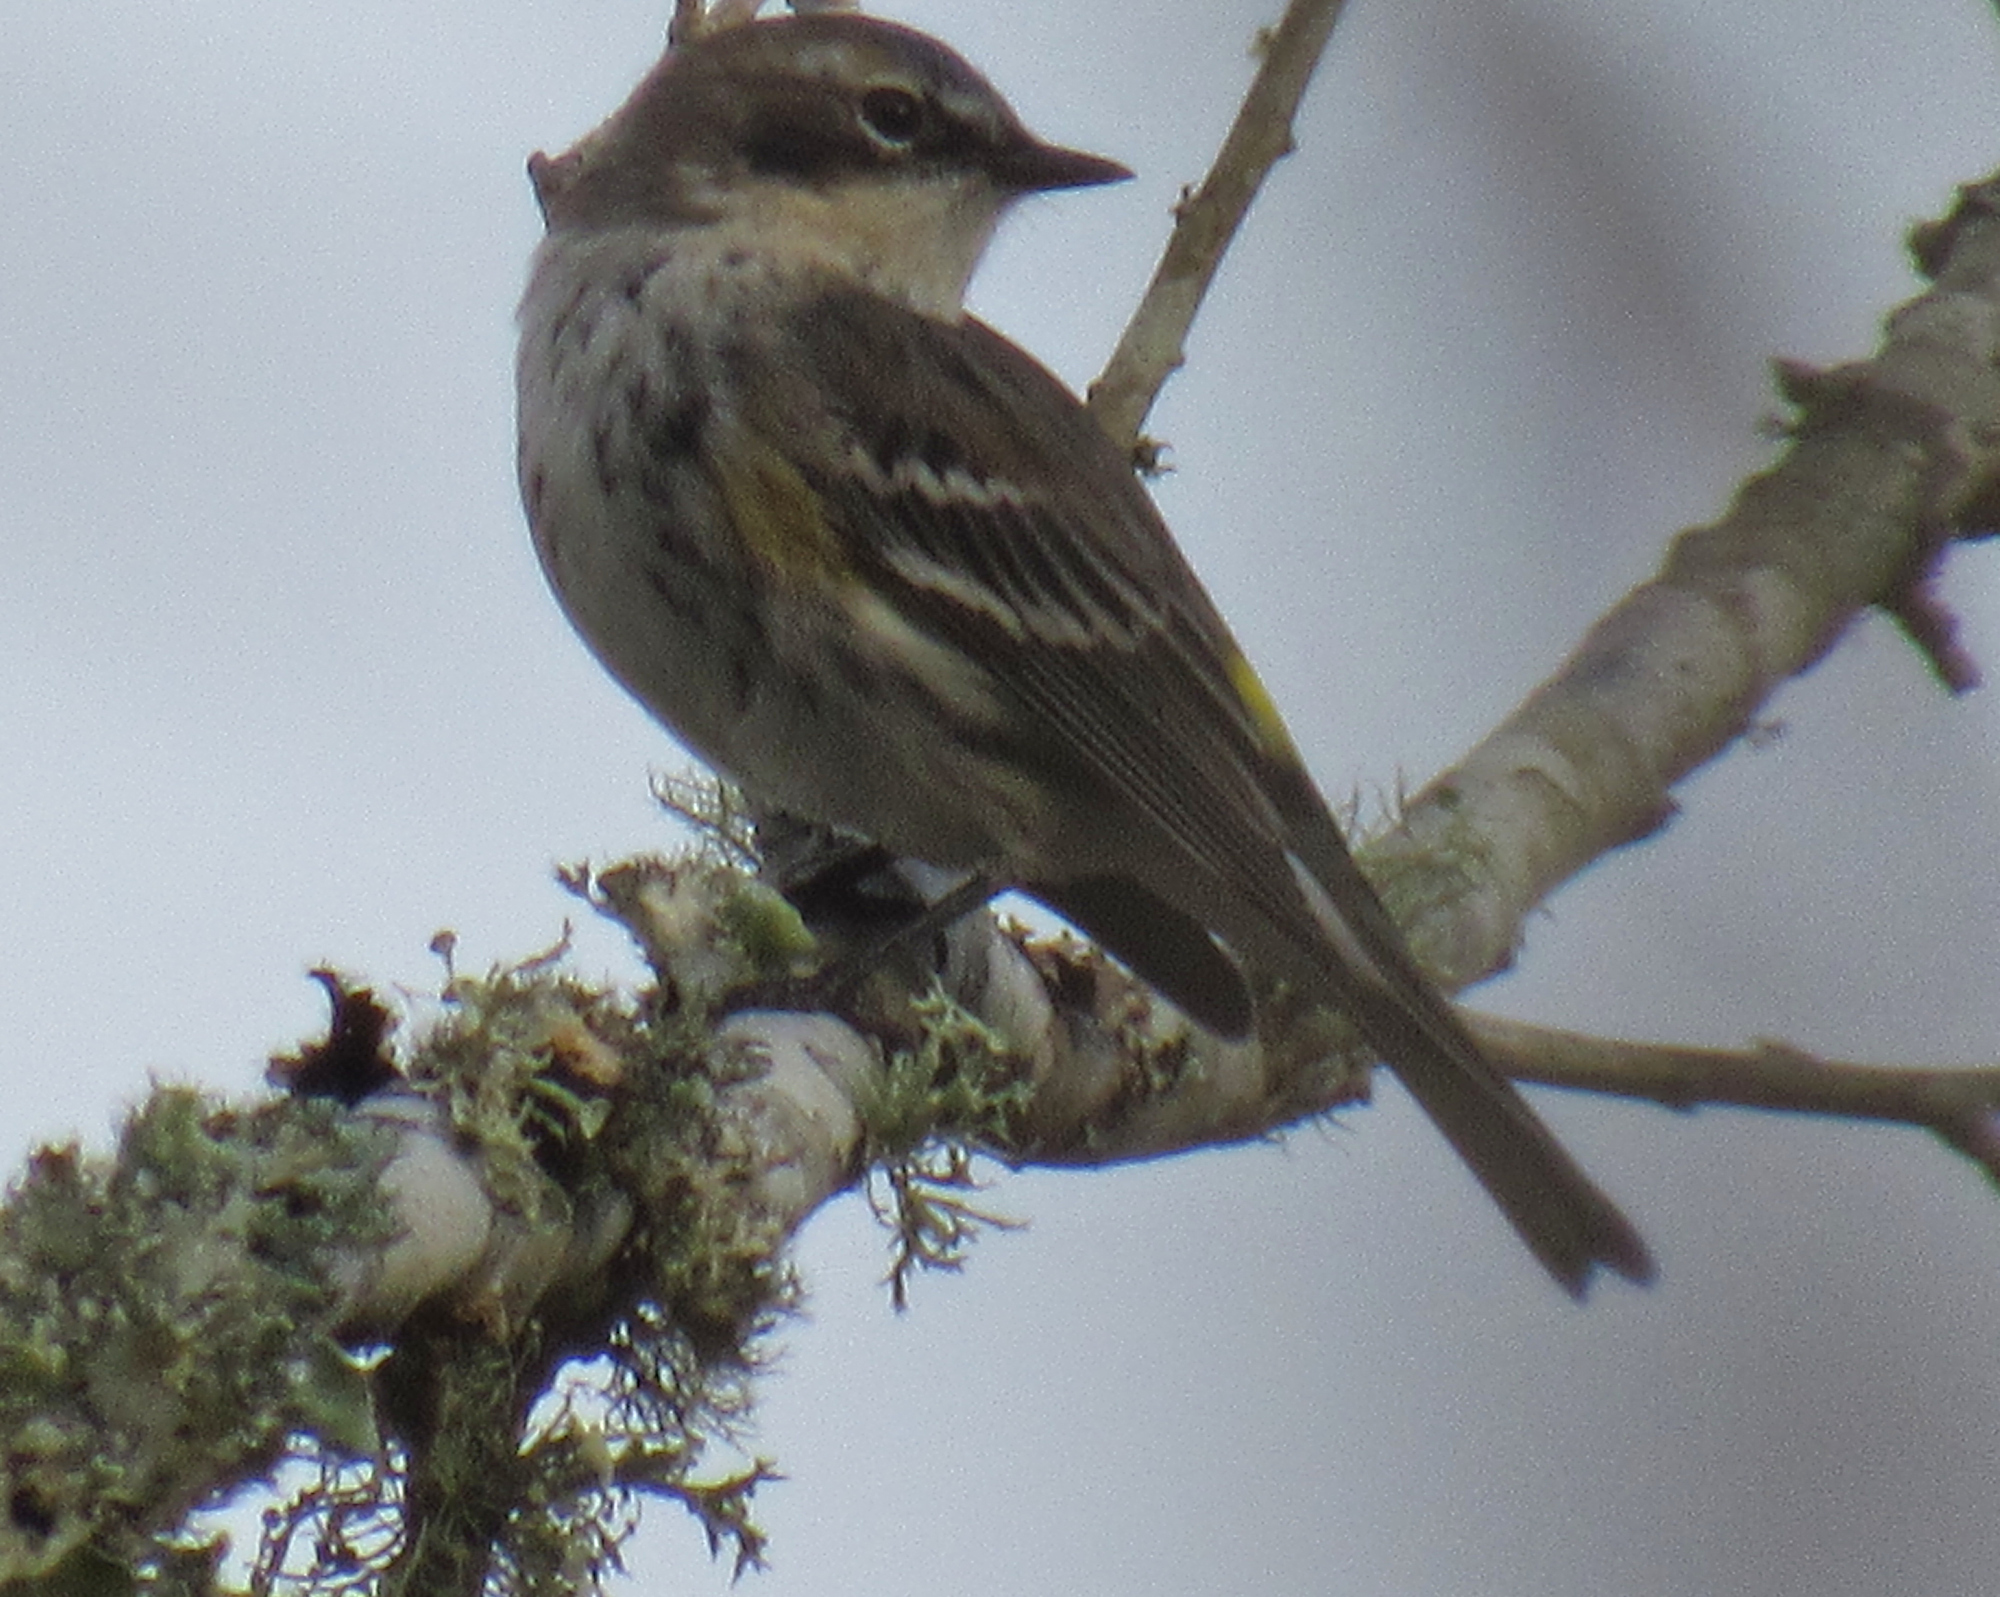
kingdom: Animalia
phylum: Chordata
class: Aves
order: Passeriformes
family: Parulidae
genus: Setophaga
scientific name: Setophaga coronata
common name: Myrtle warbler
